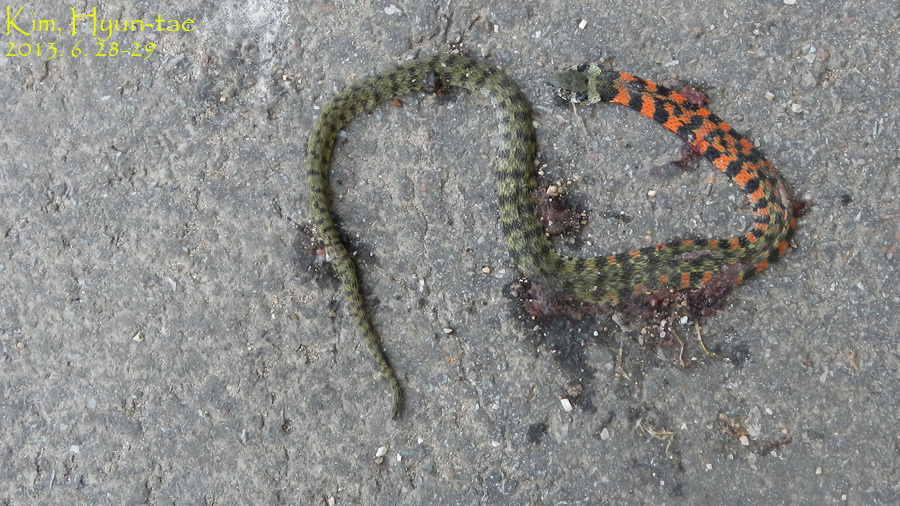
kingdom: Animalia
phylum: Chordata
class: Squamata
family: Colubridae
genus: Rhabdophis
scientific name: Rhabdophis tigrinus
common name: Tiger keelback
